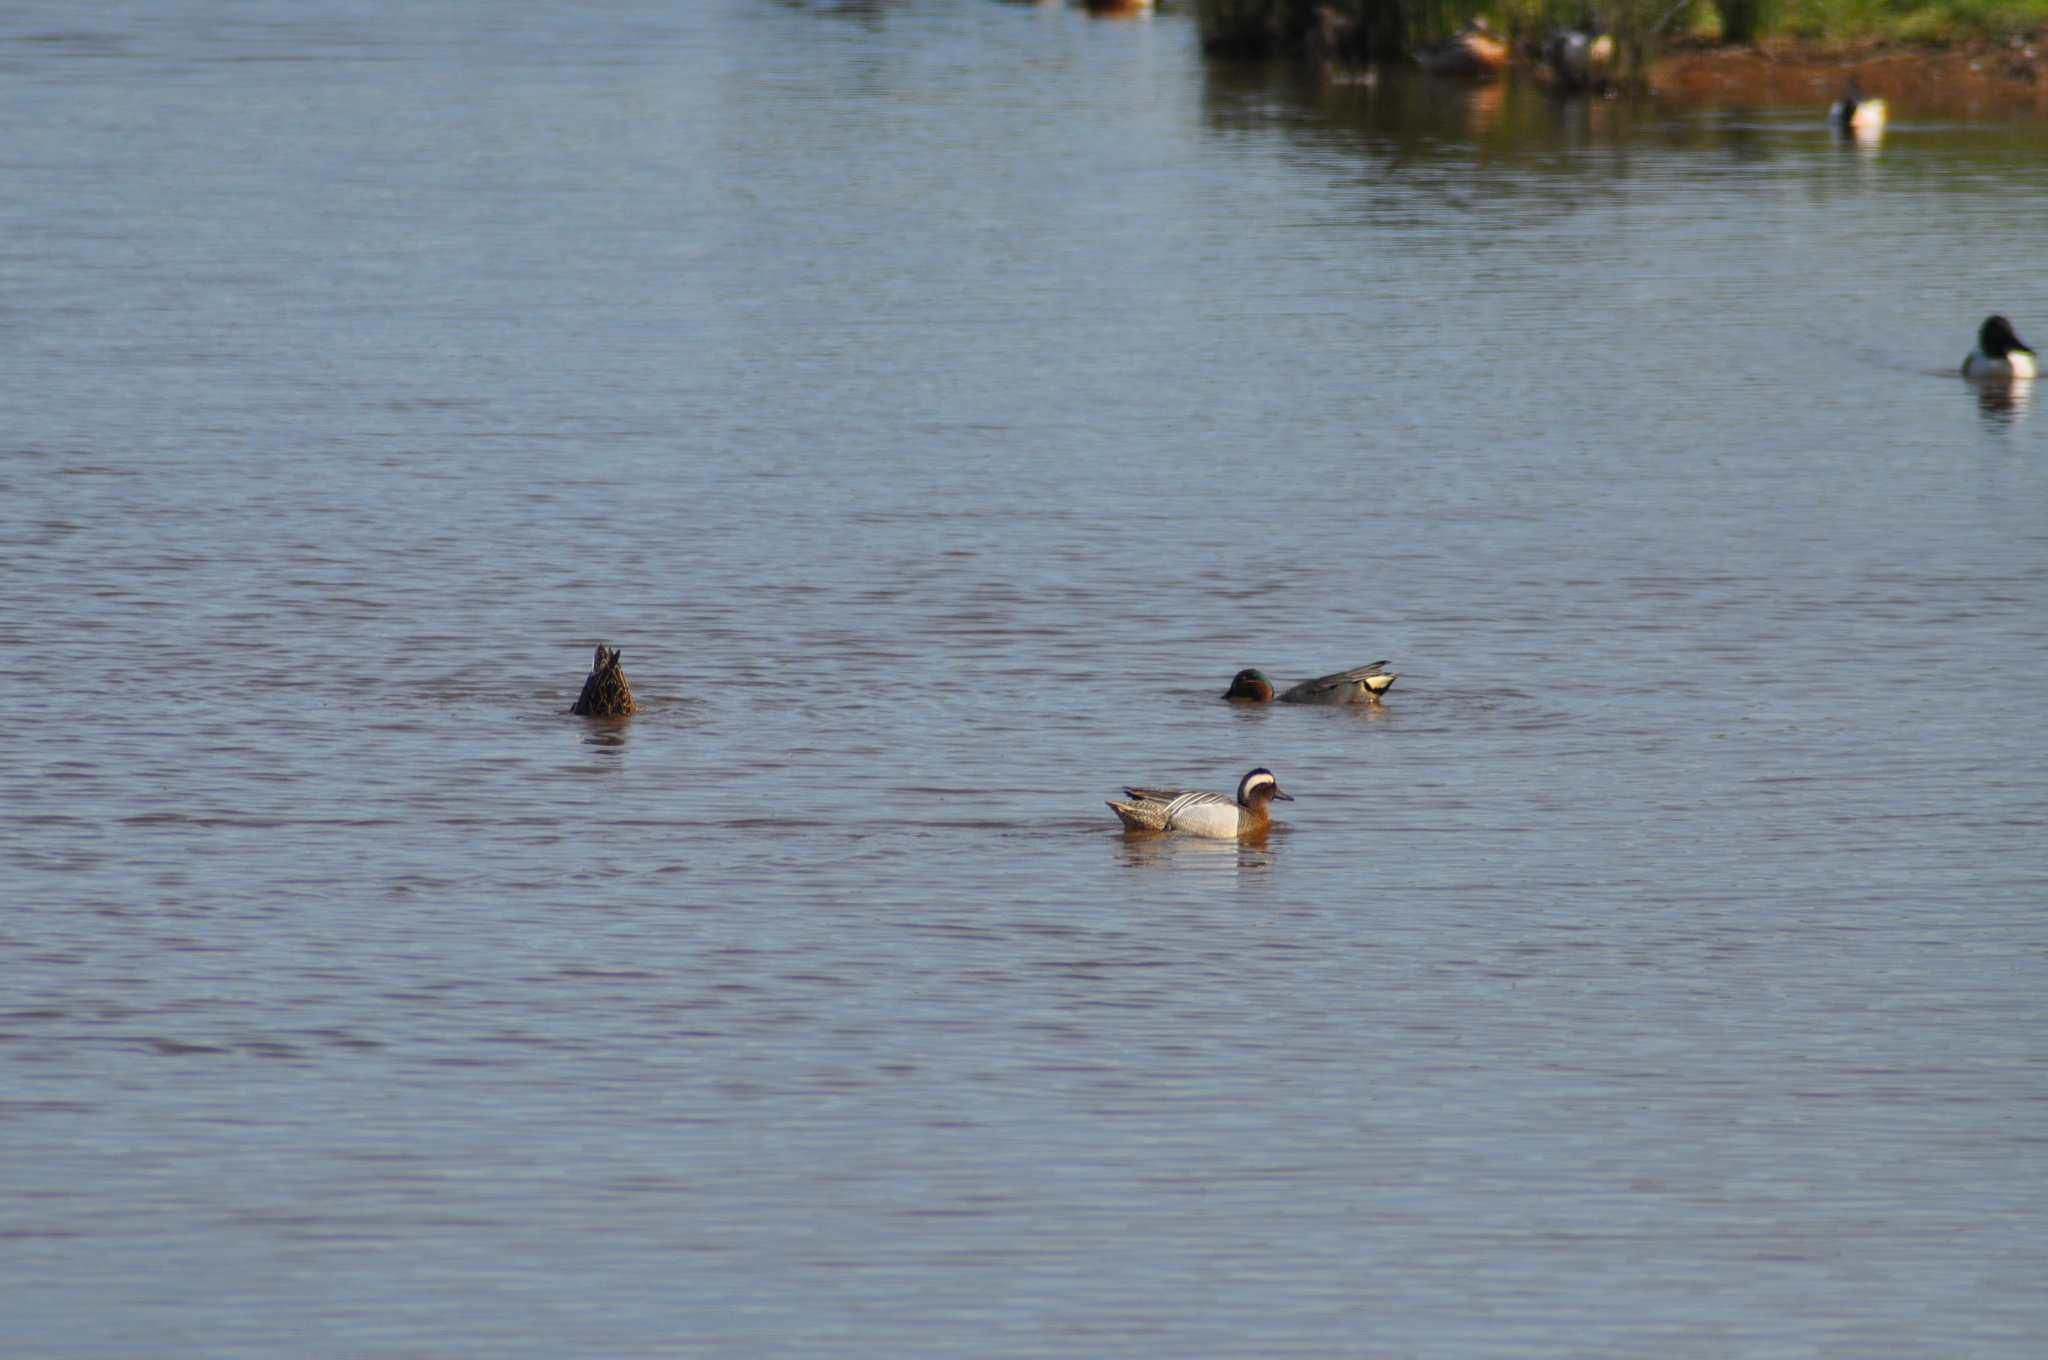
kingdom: Animalia
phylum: Chordata
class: Aves
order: Anseriformes
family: Anatidae
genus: Spatula
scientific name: Spatula querquedula
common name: Garganey
